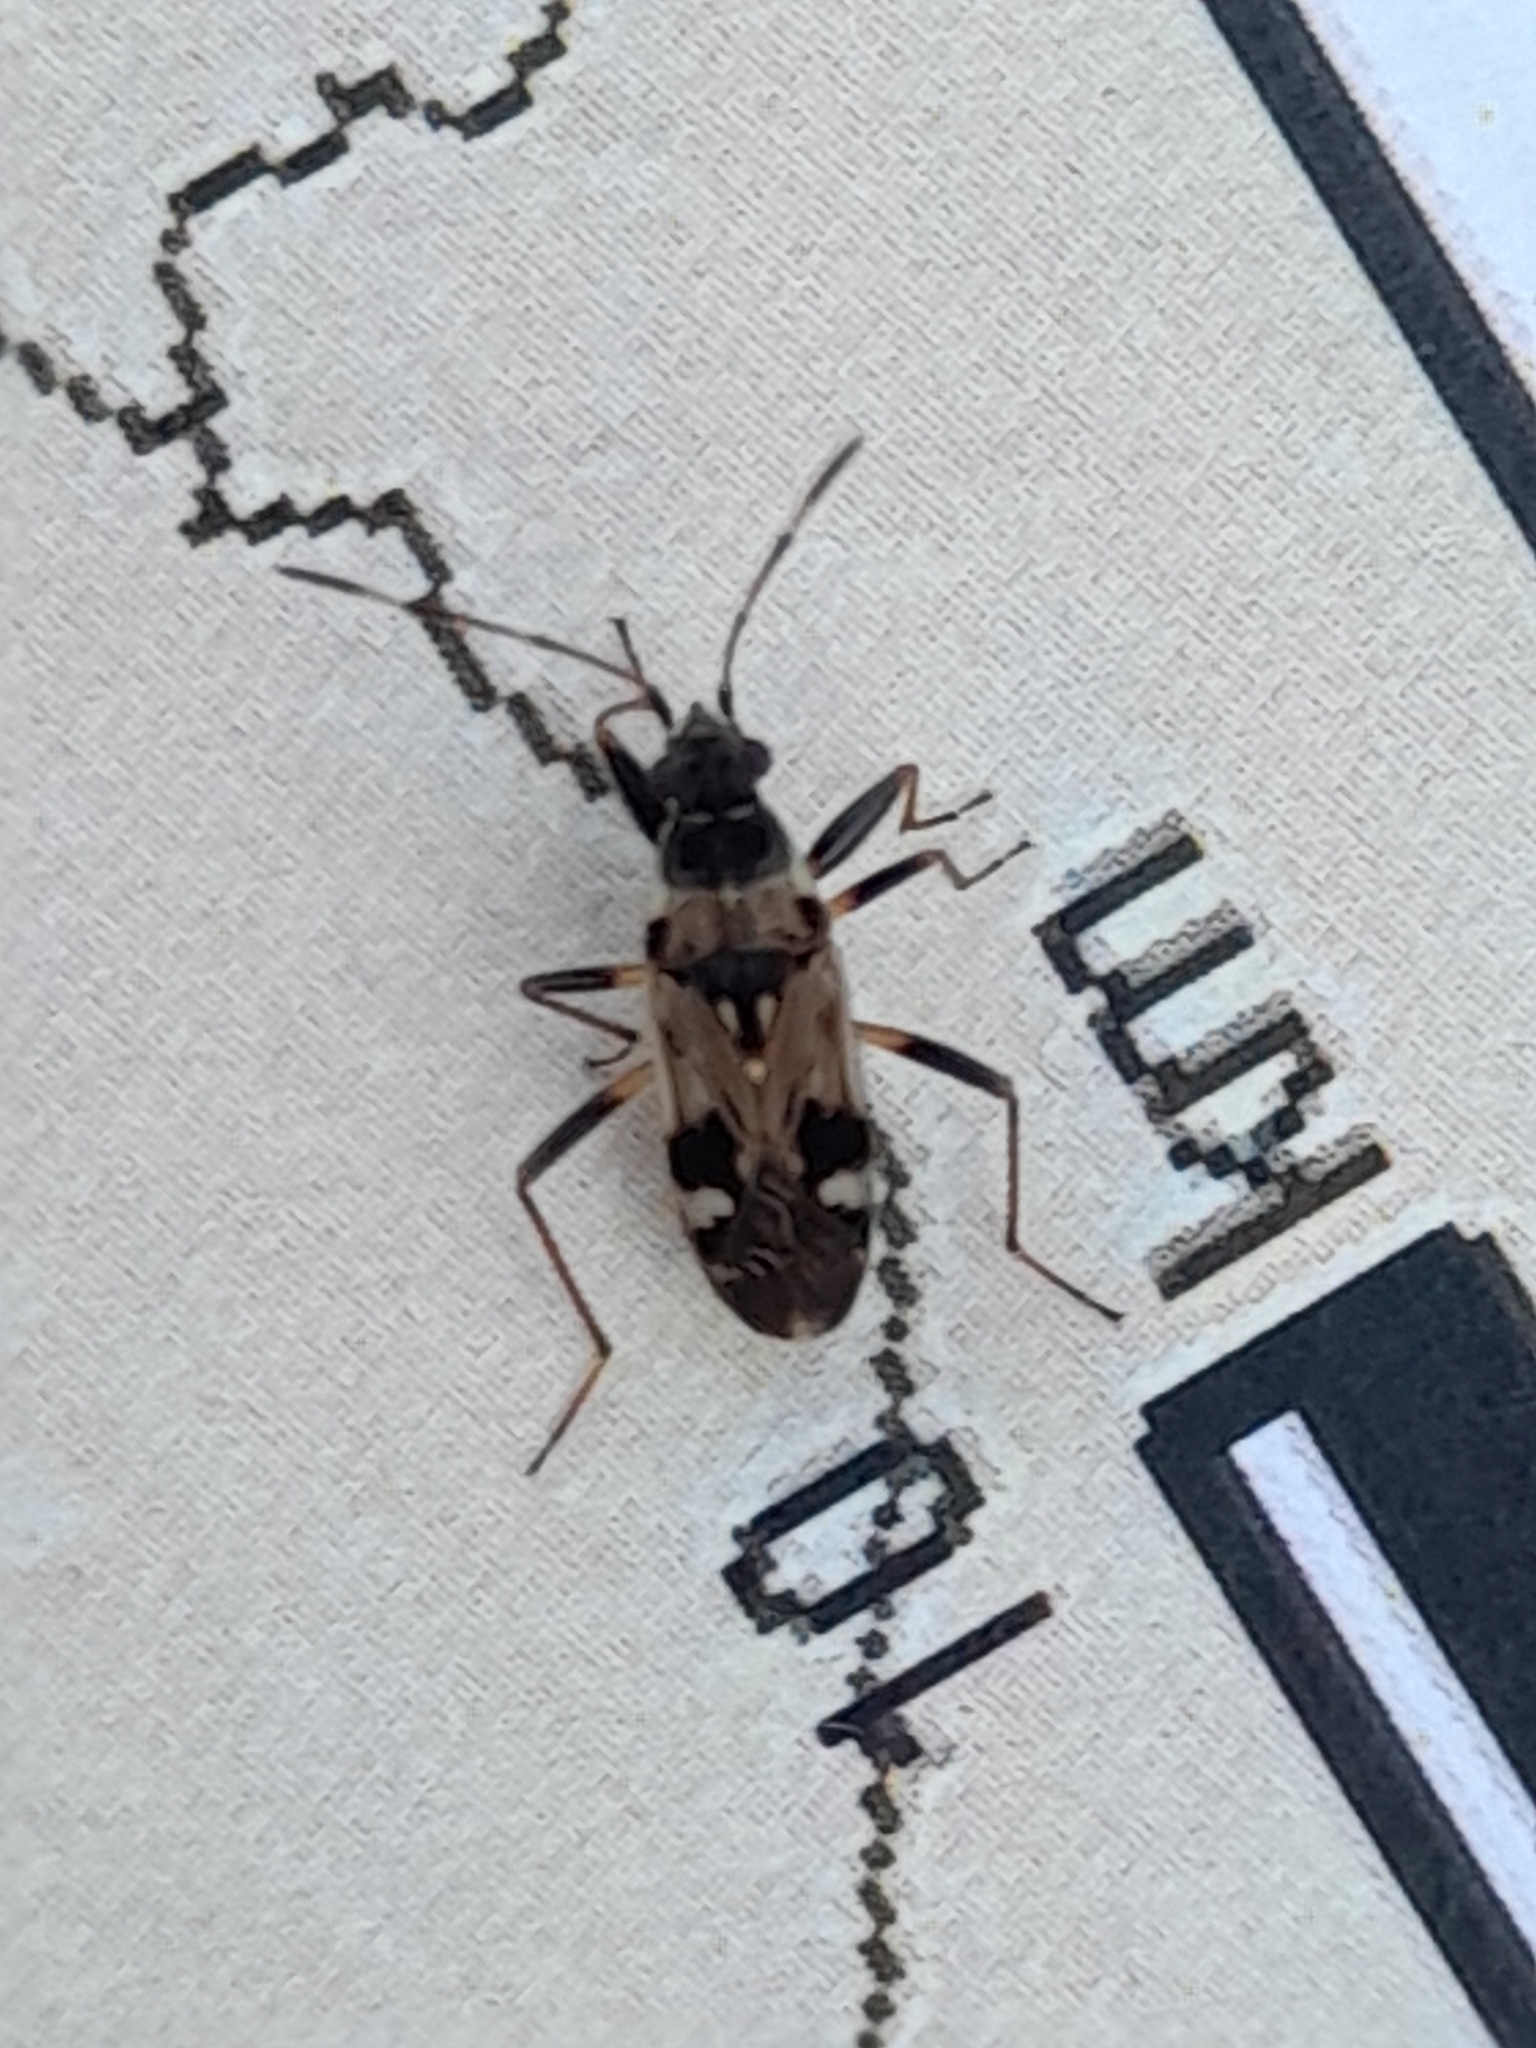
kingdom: Animalia
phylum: Arthropoda
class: Insecta
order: Hemiptera
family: Rhyparochromidae
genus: Beosus
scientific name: Beosus maritimus
